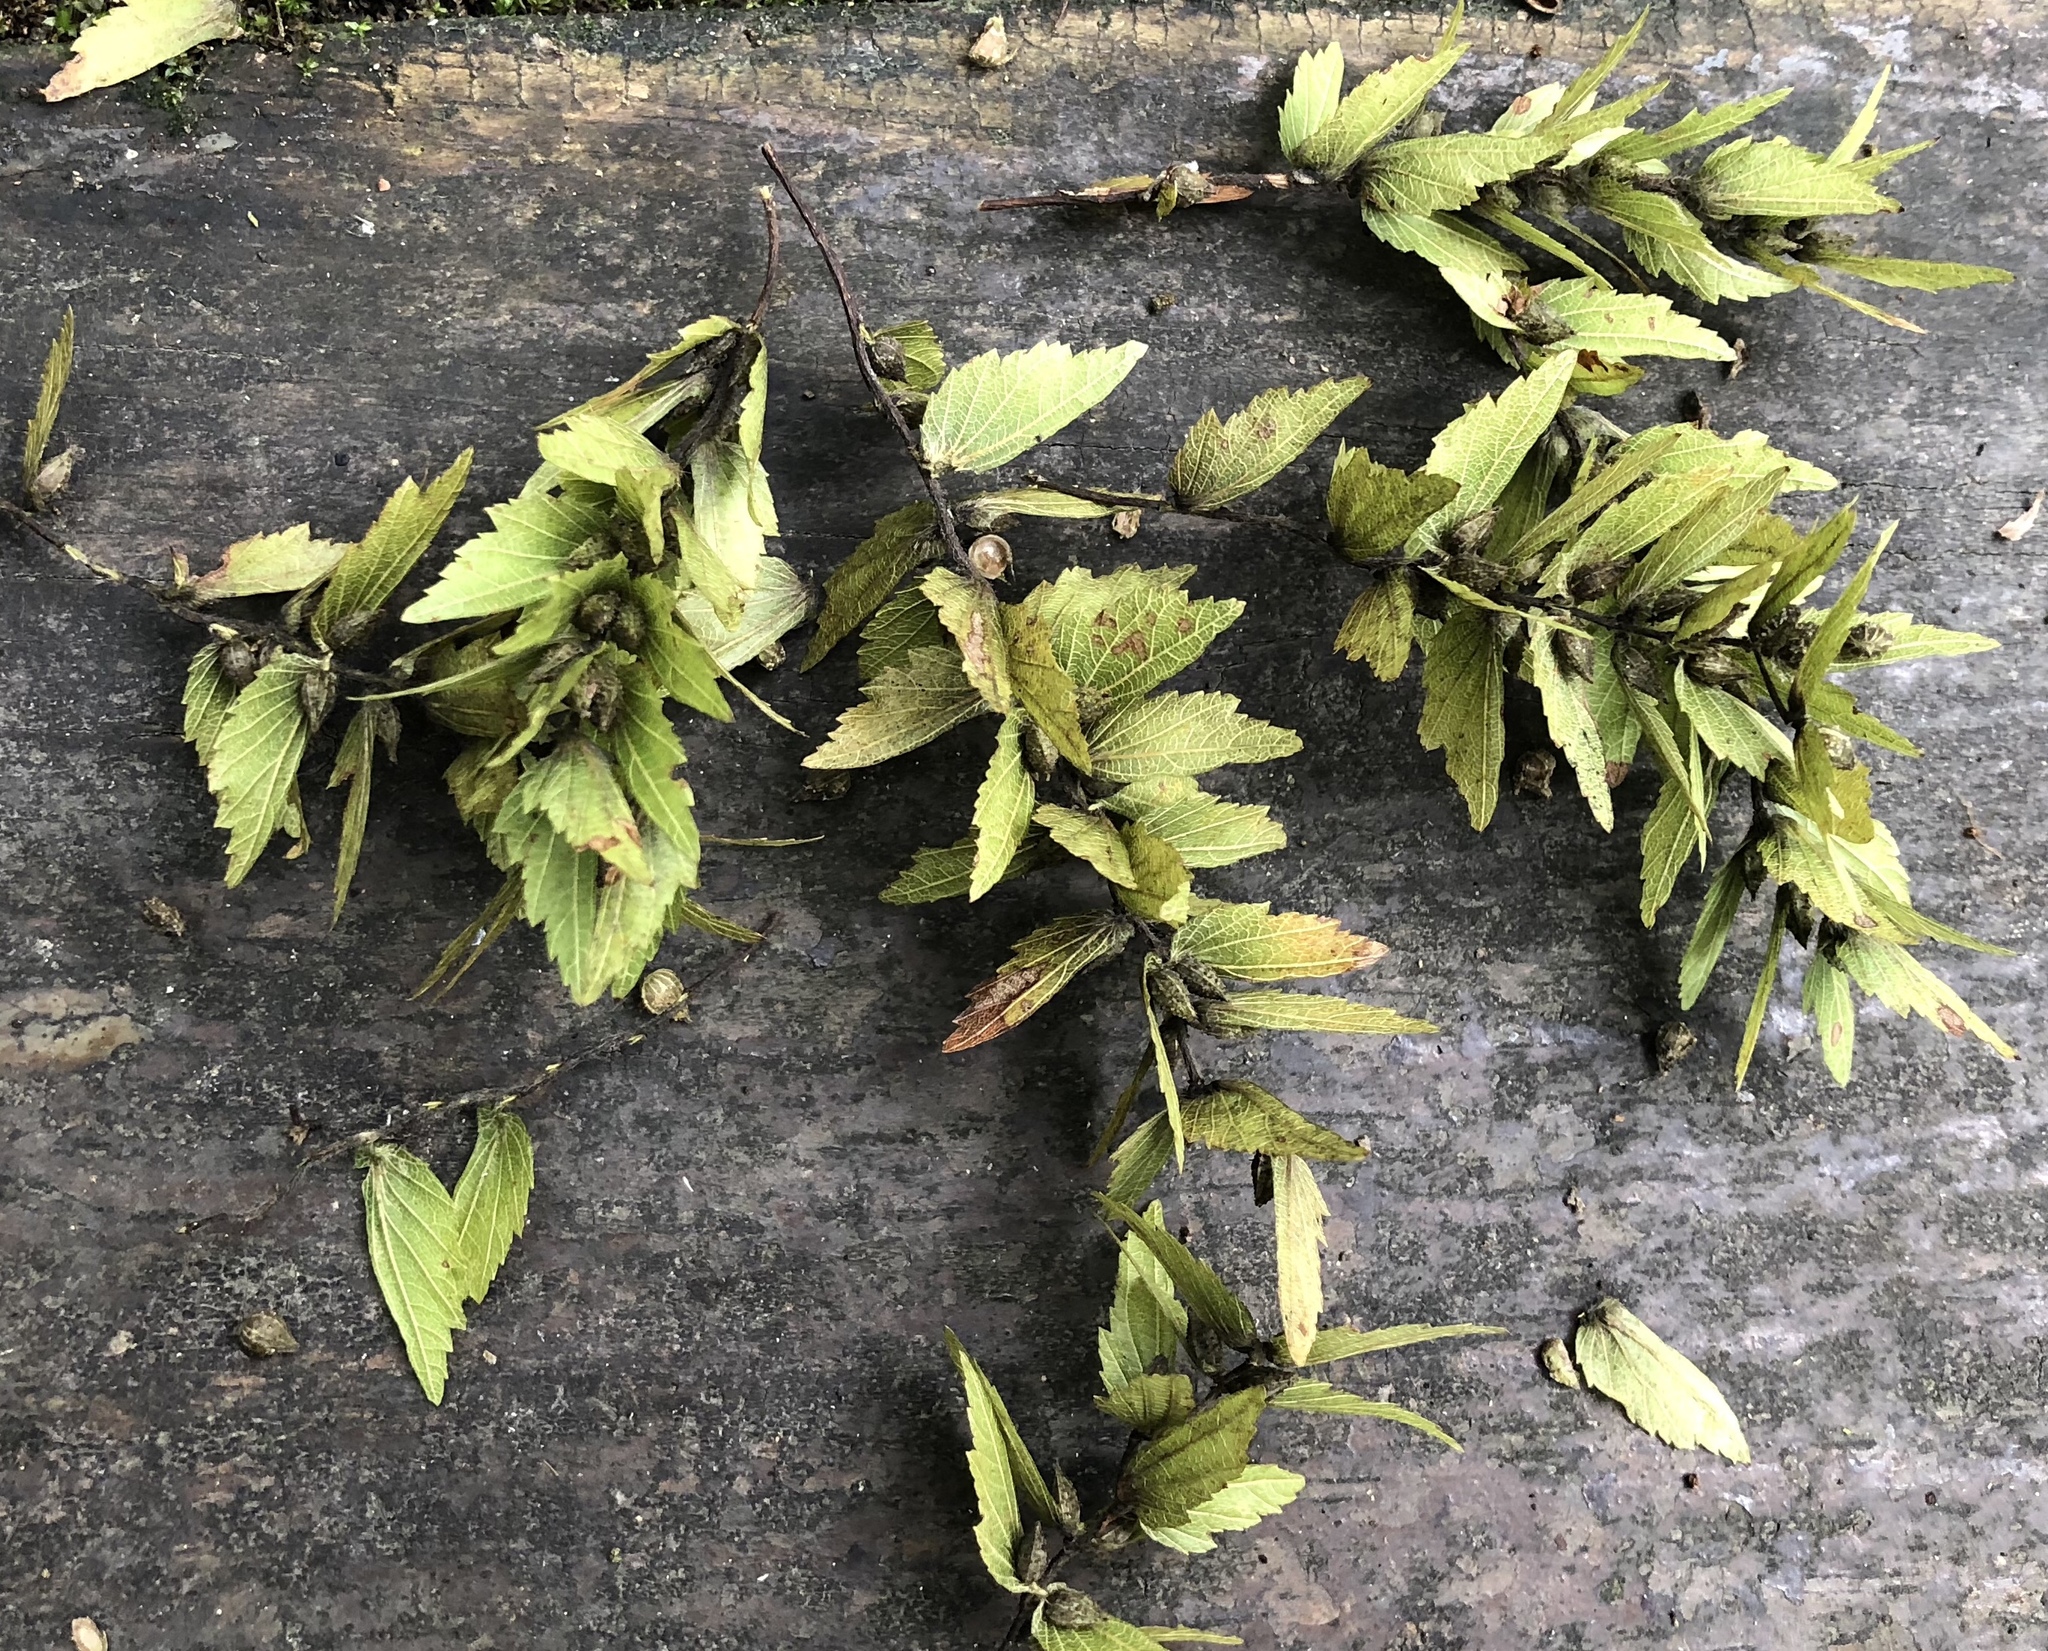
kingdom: Plantae
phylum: Tracheophyta
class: Magnoliopsida
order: Fagales
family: Betulaceae
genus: Carpinus
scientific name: Carpinus kawakamii
